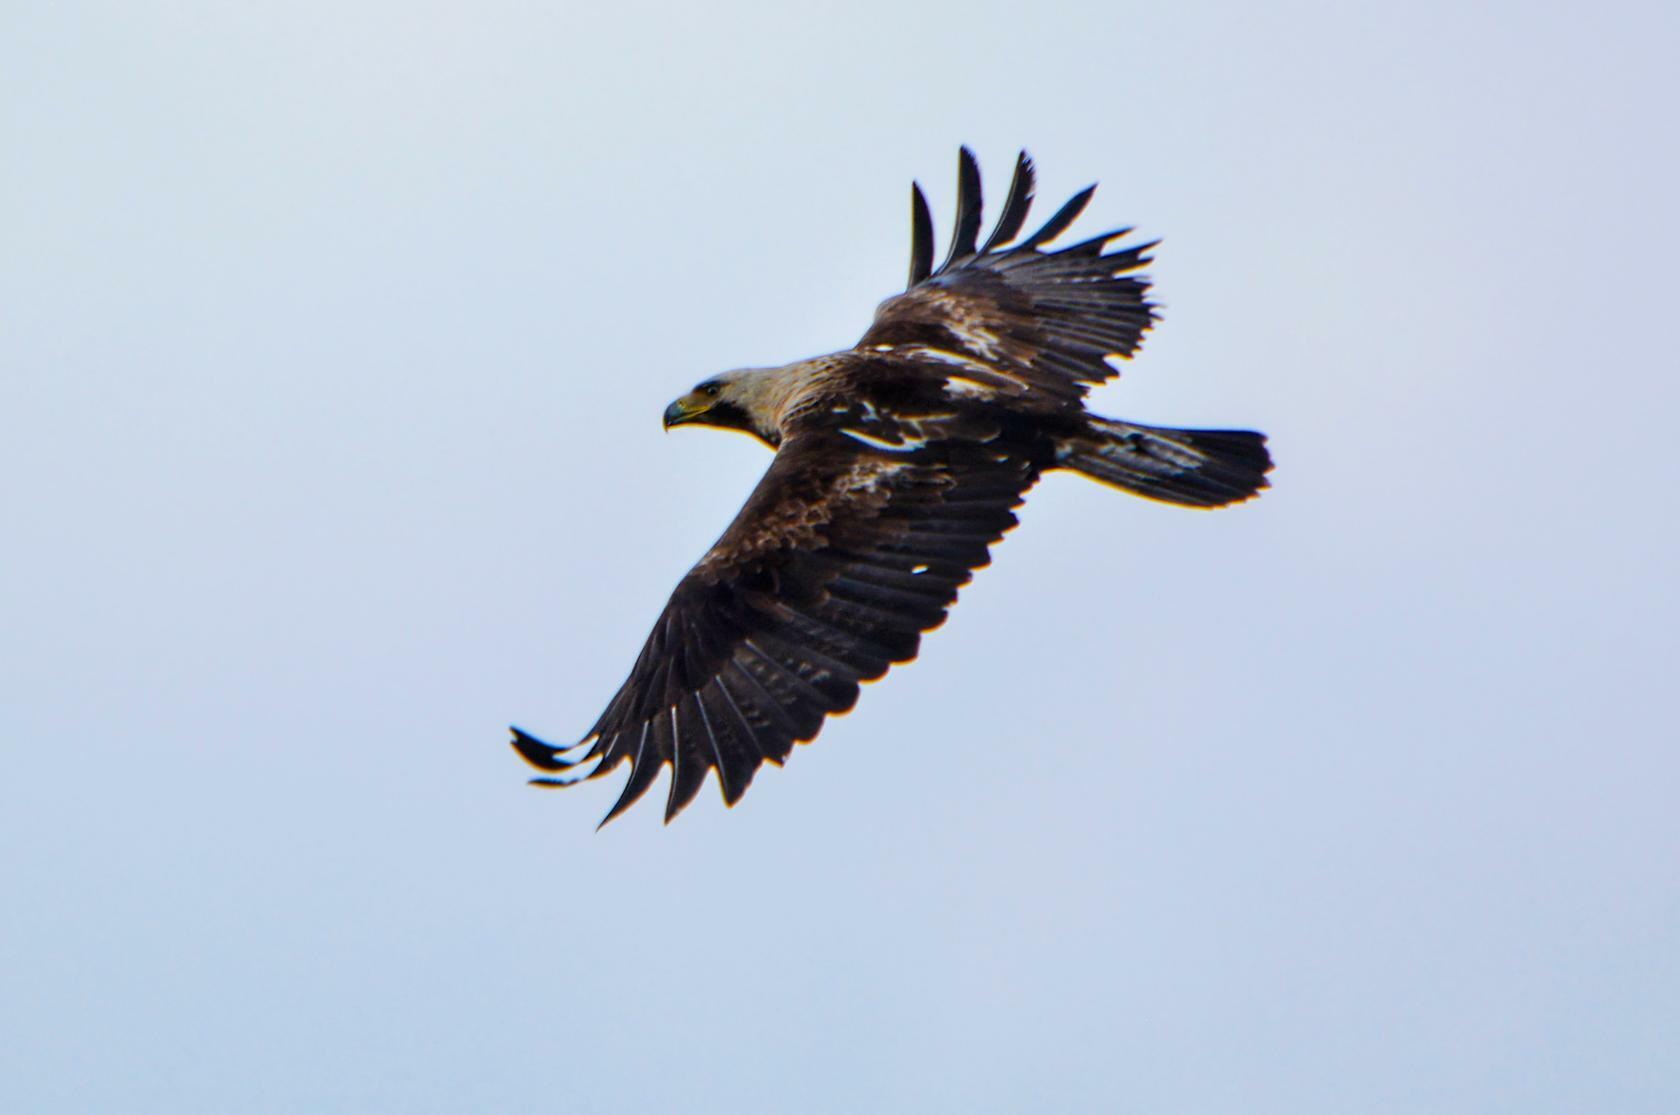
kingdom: Animalia
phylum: Chordata
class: Aves
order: Accipitriformes
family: Accipitridae
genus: Aquila
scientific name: Aquila heliaca
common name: Eastern imperial eagle
